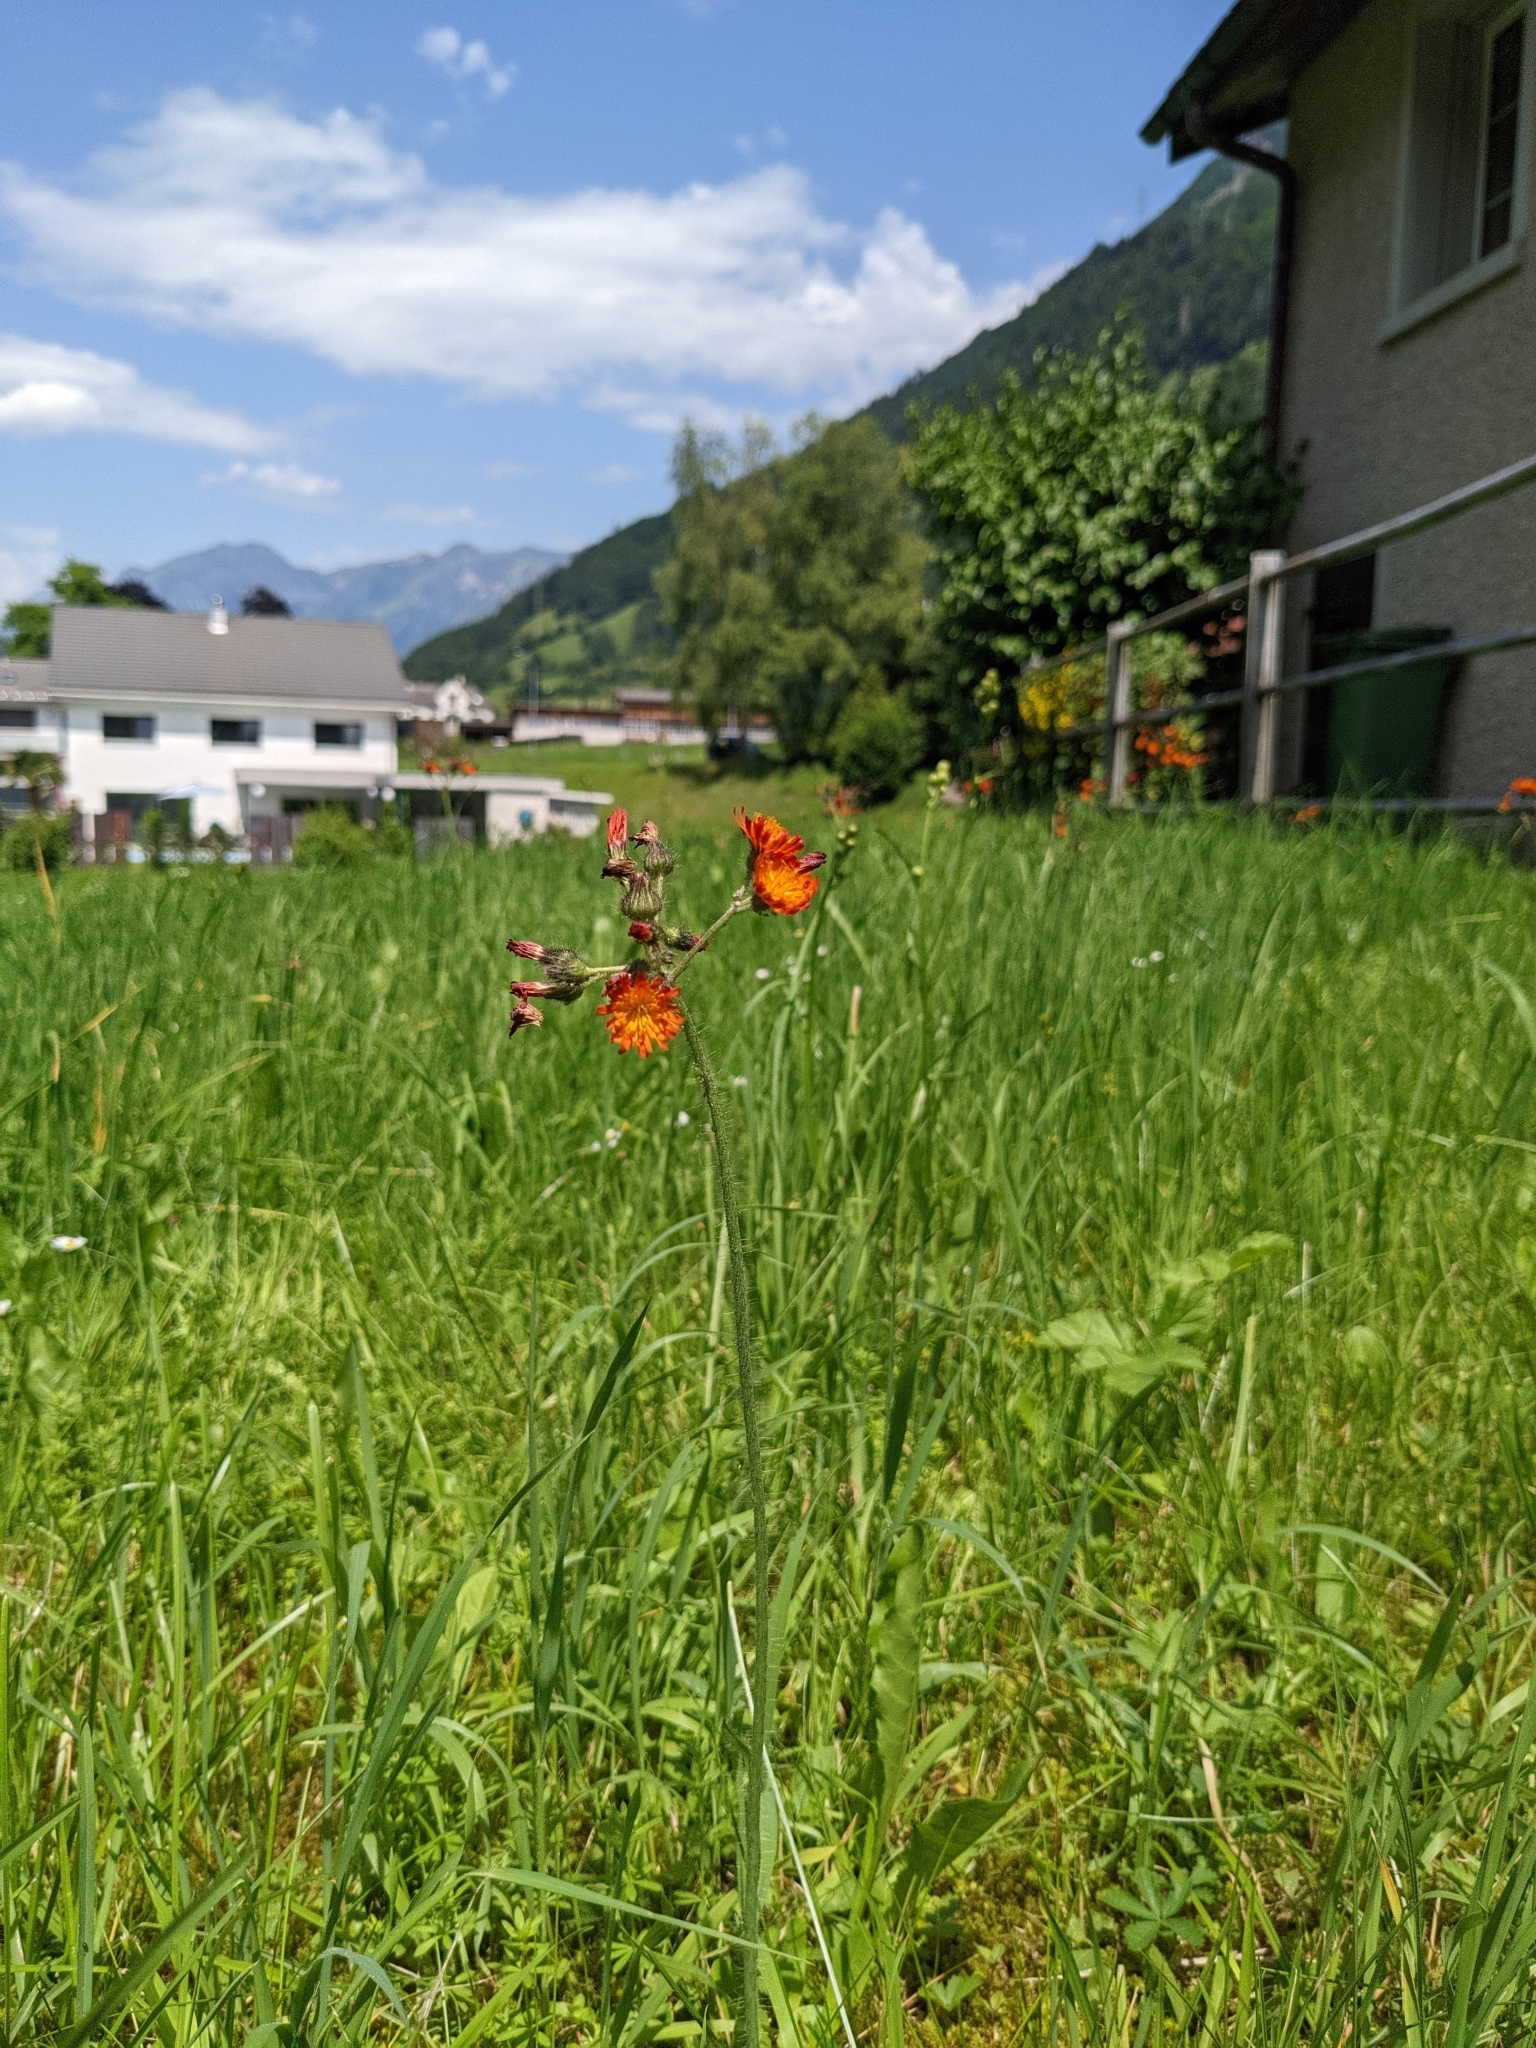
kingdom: Plantae
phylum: Tracheophyta
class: Magnoliopsida
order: Asterales
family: Asteraceae
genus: Pilosella
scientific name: Pilosella aurantiaca
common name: Fox-and-cubs
